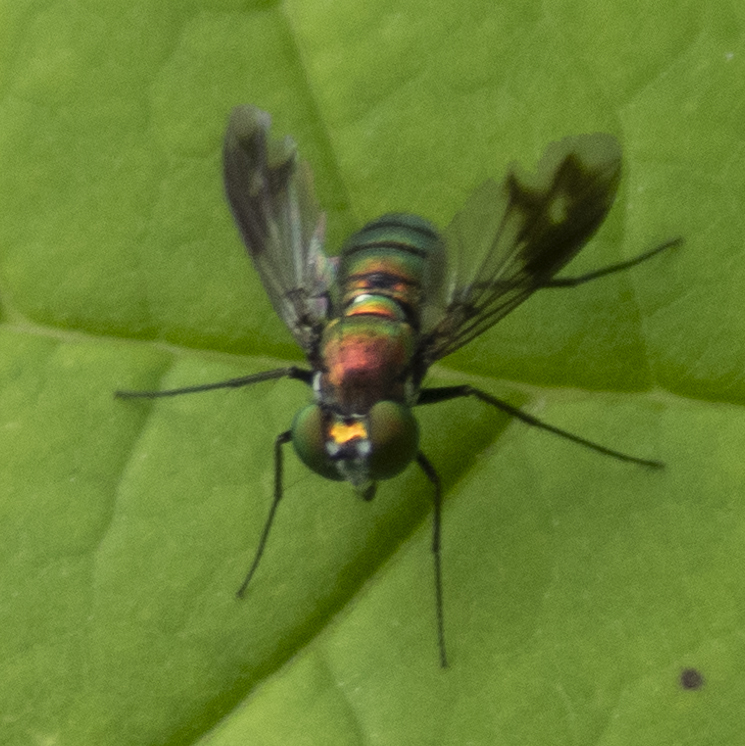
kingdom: Animalia
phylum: Arthropoda
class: Insecta
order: Diptera
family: Dolichopodidae
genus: Condylostylus
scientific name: Condylostylus patibulatus
